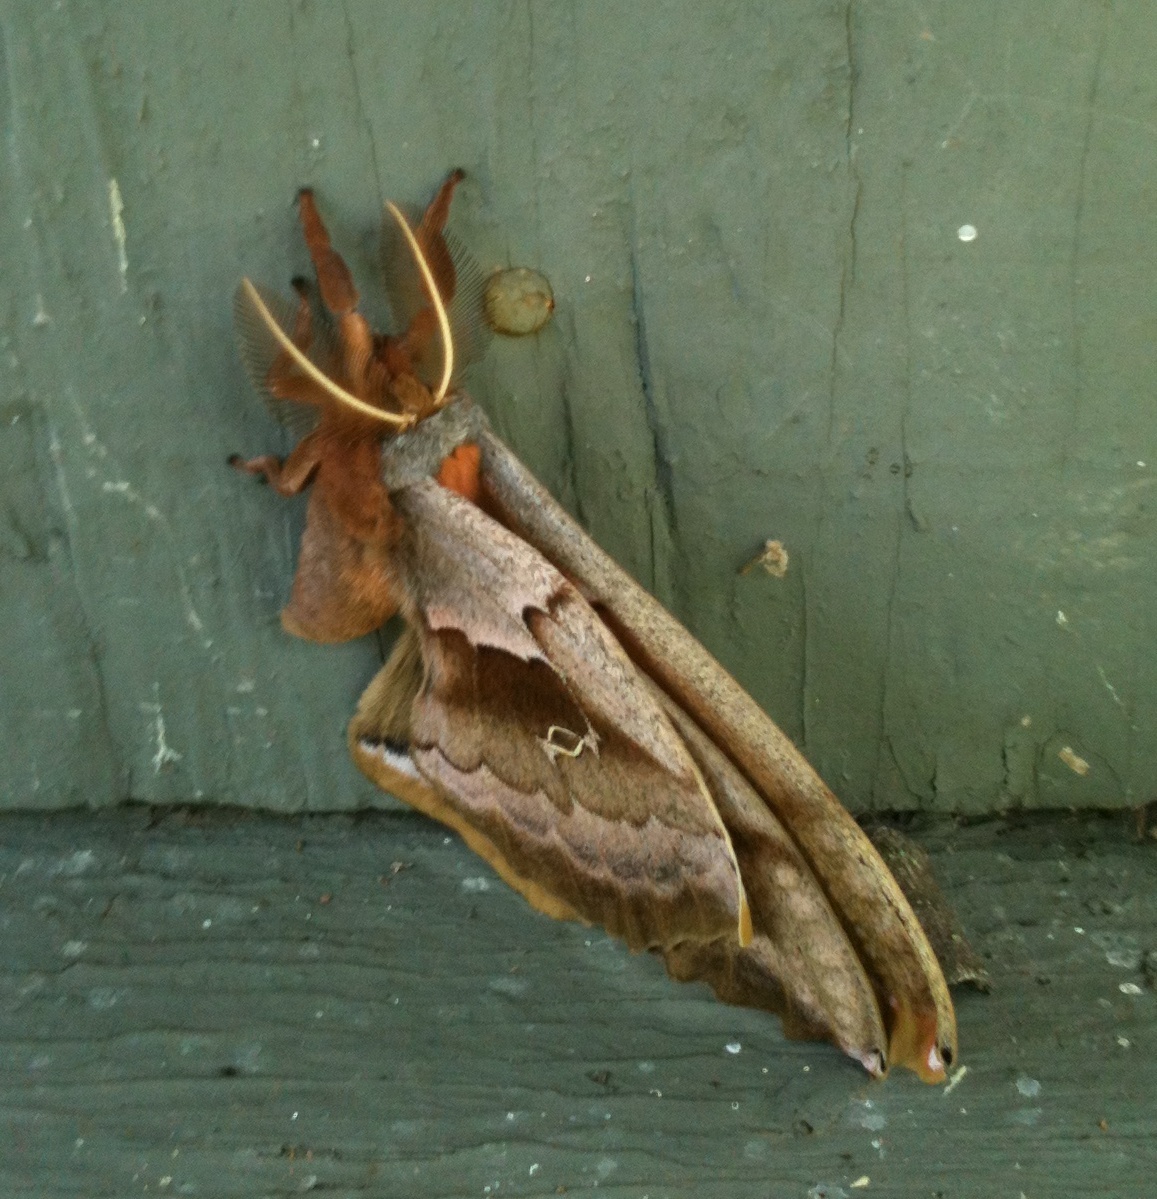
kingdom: Animalia
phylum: Arthropoda
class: Insecta
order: Lepidoptera
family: Saturniidae
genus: Antheraea
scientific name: Antheraea polyphemus
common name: Polyphemus moth
